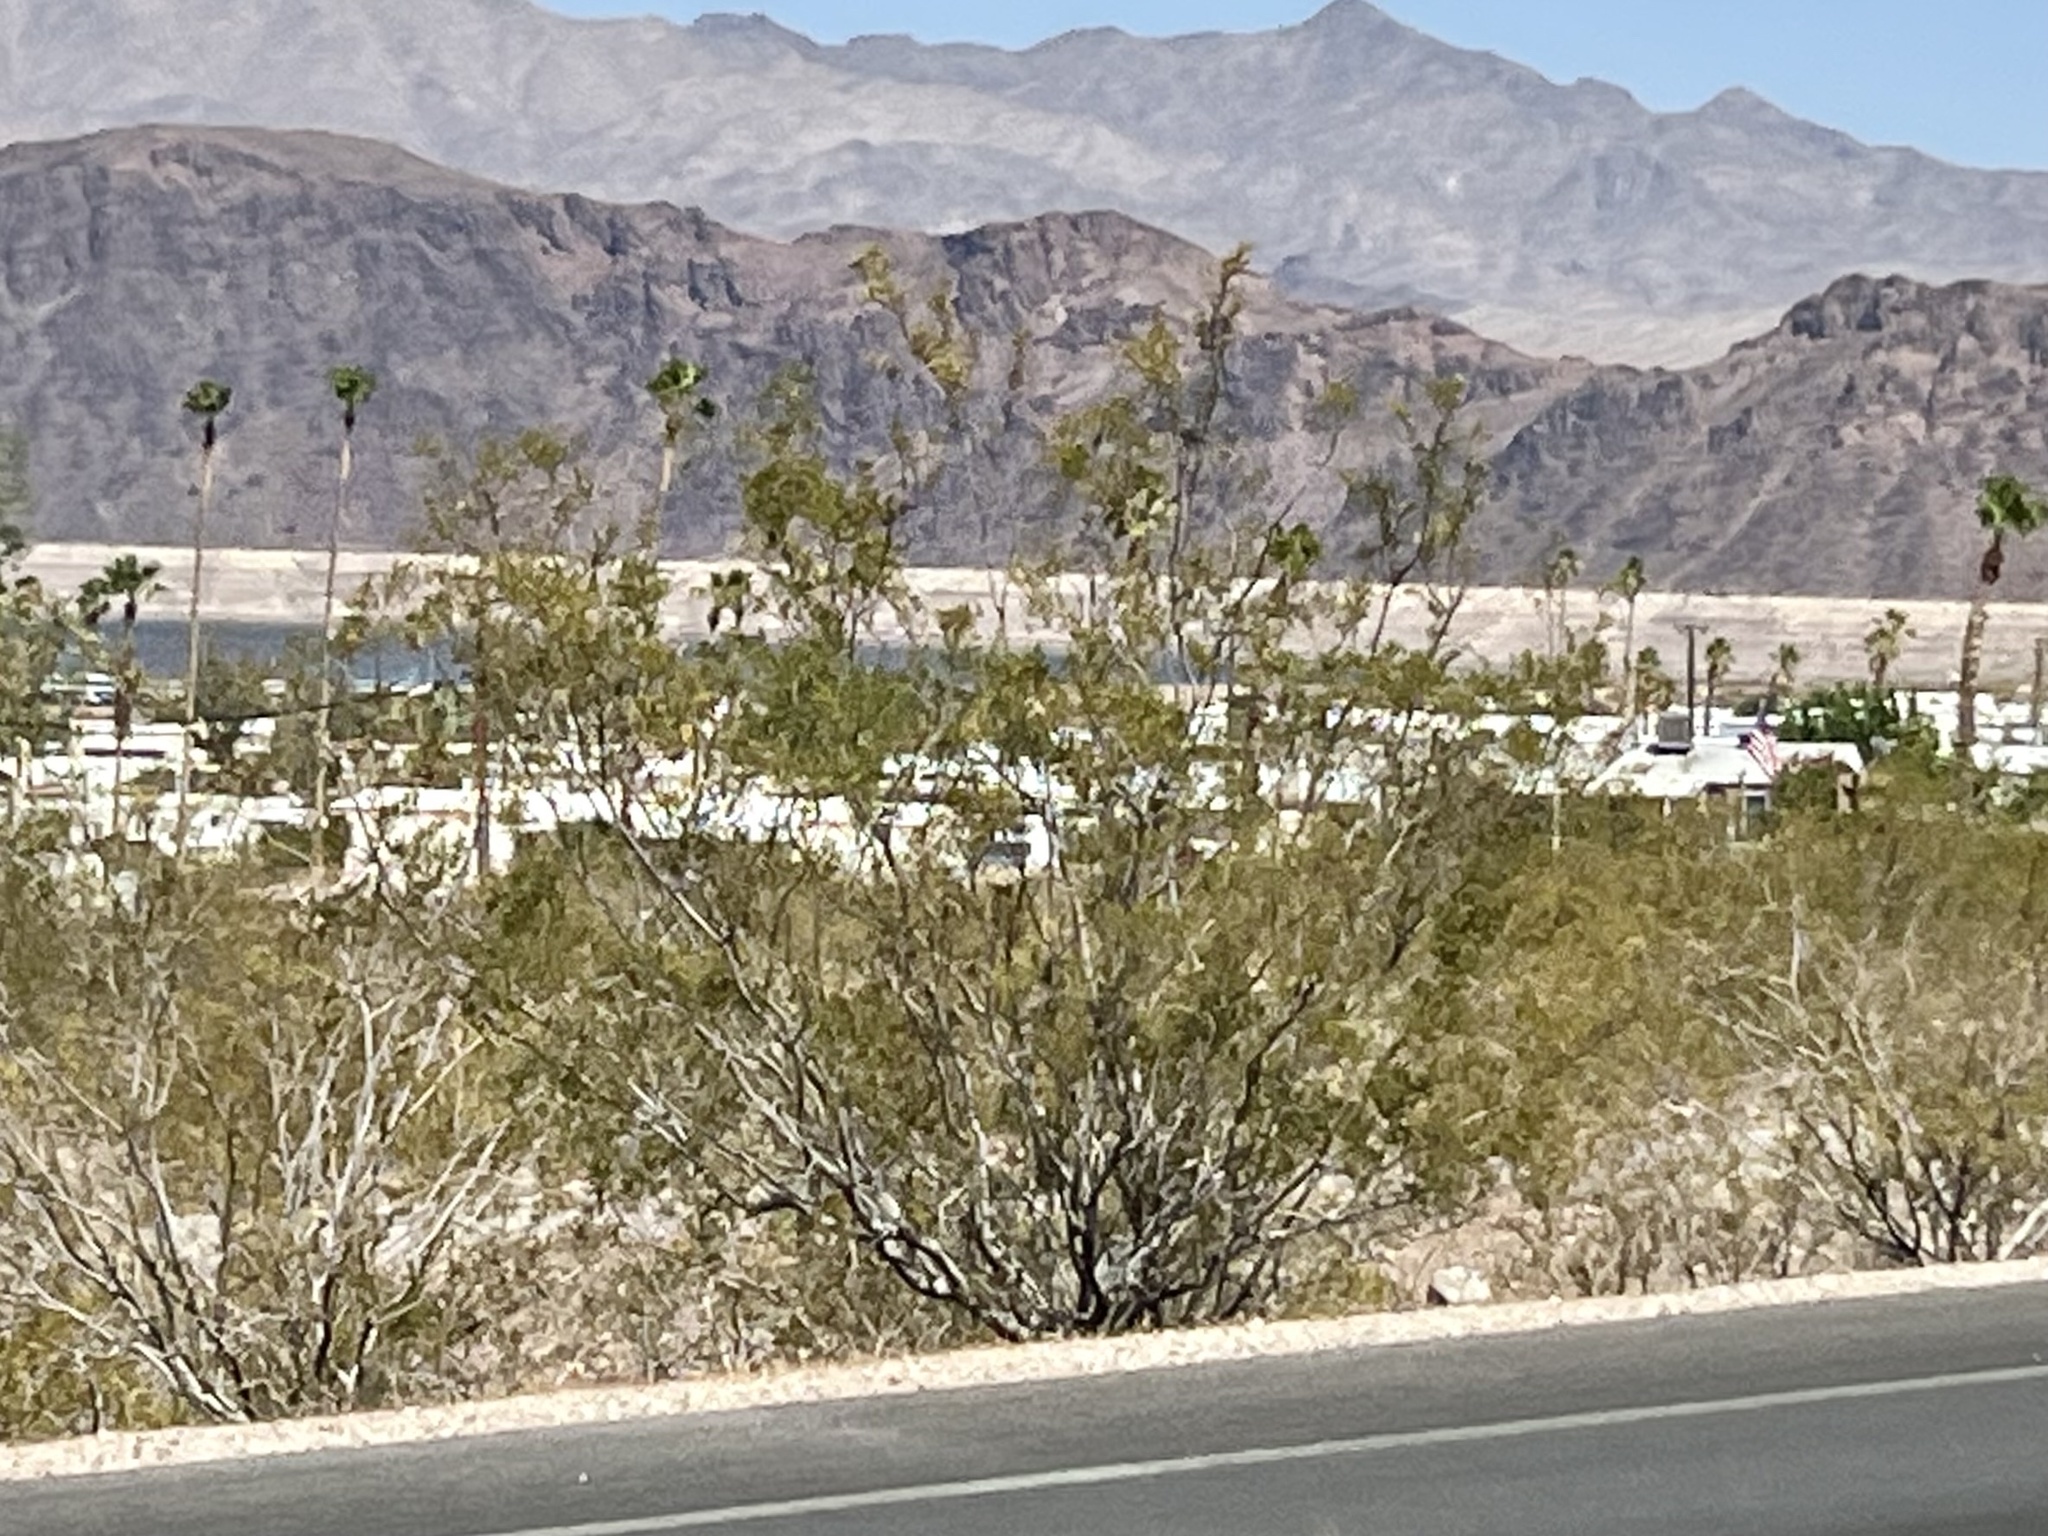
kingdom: Plantae
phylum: Tracheophyta
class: Magnoliopsida
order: Zygophyllales
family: Zygophyllaceae
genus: Larrea
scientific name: Larrea tridentata
